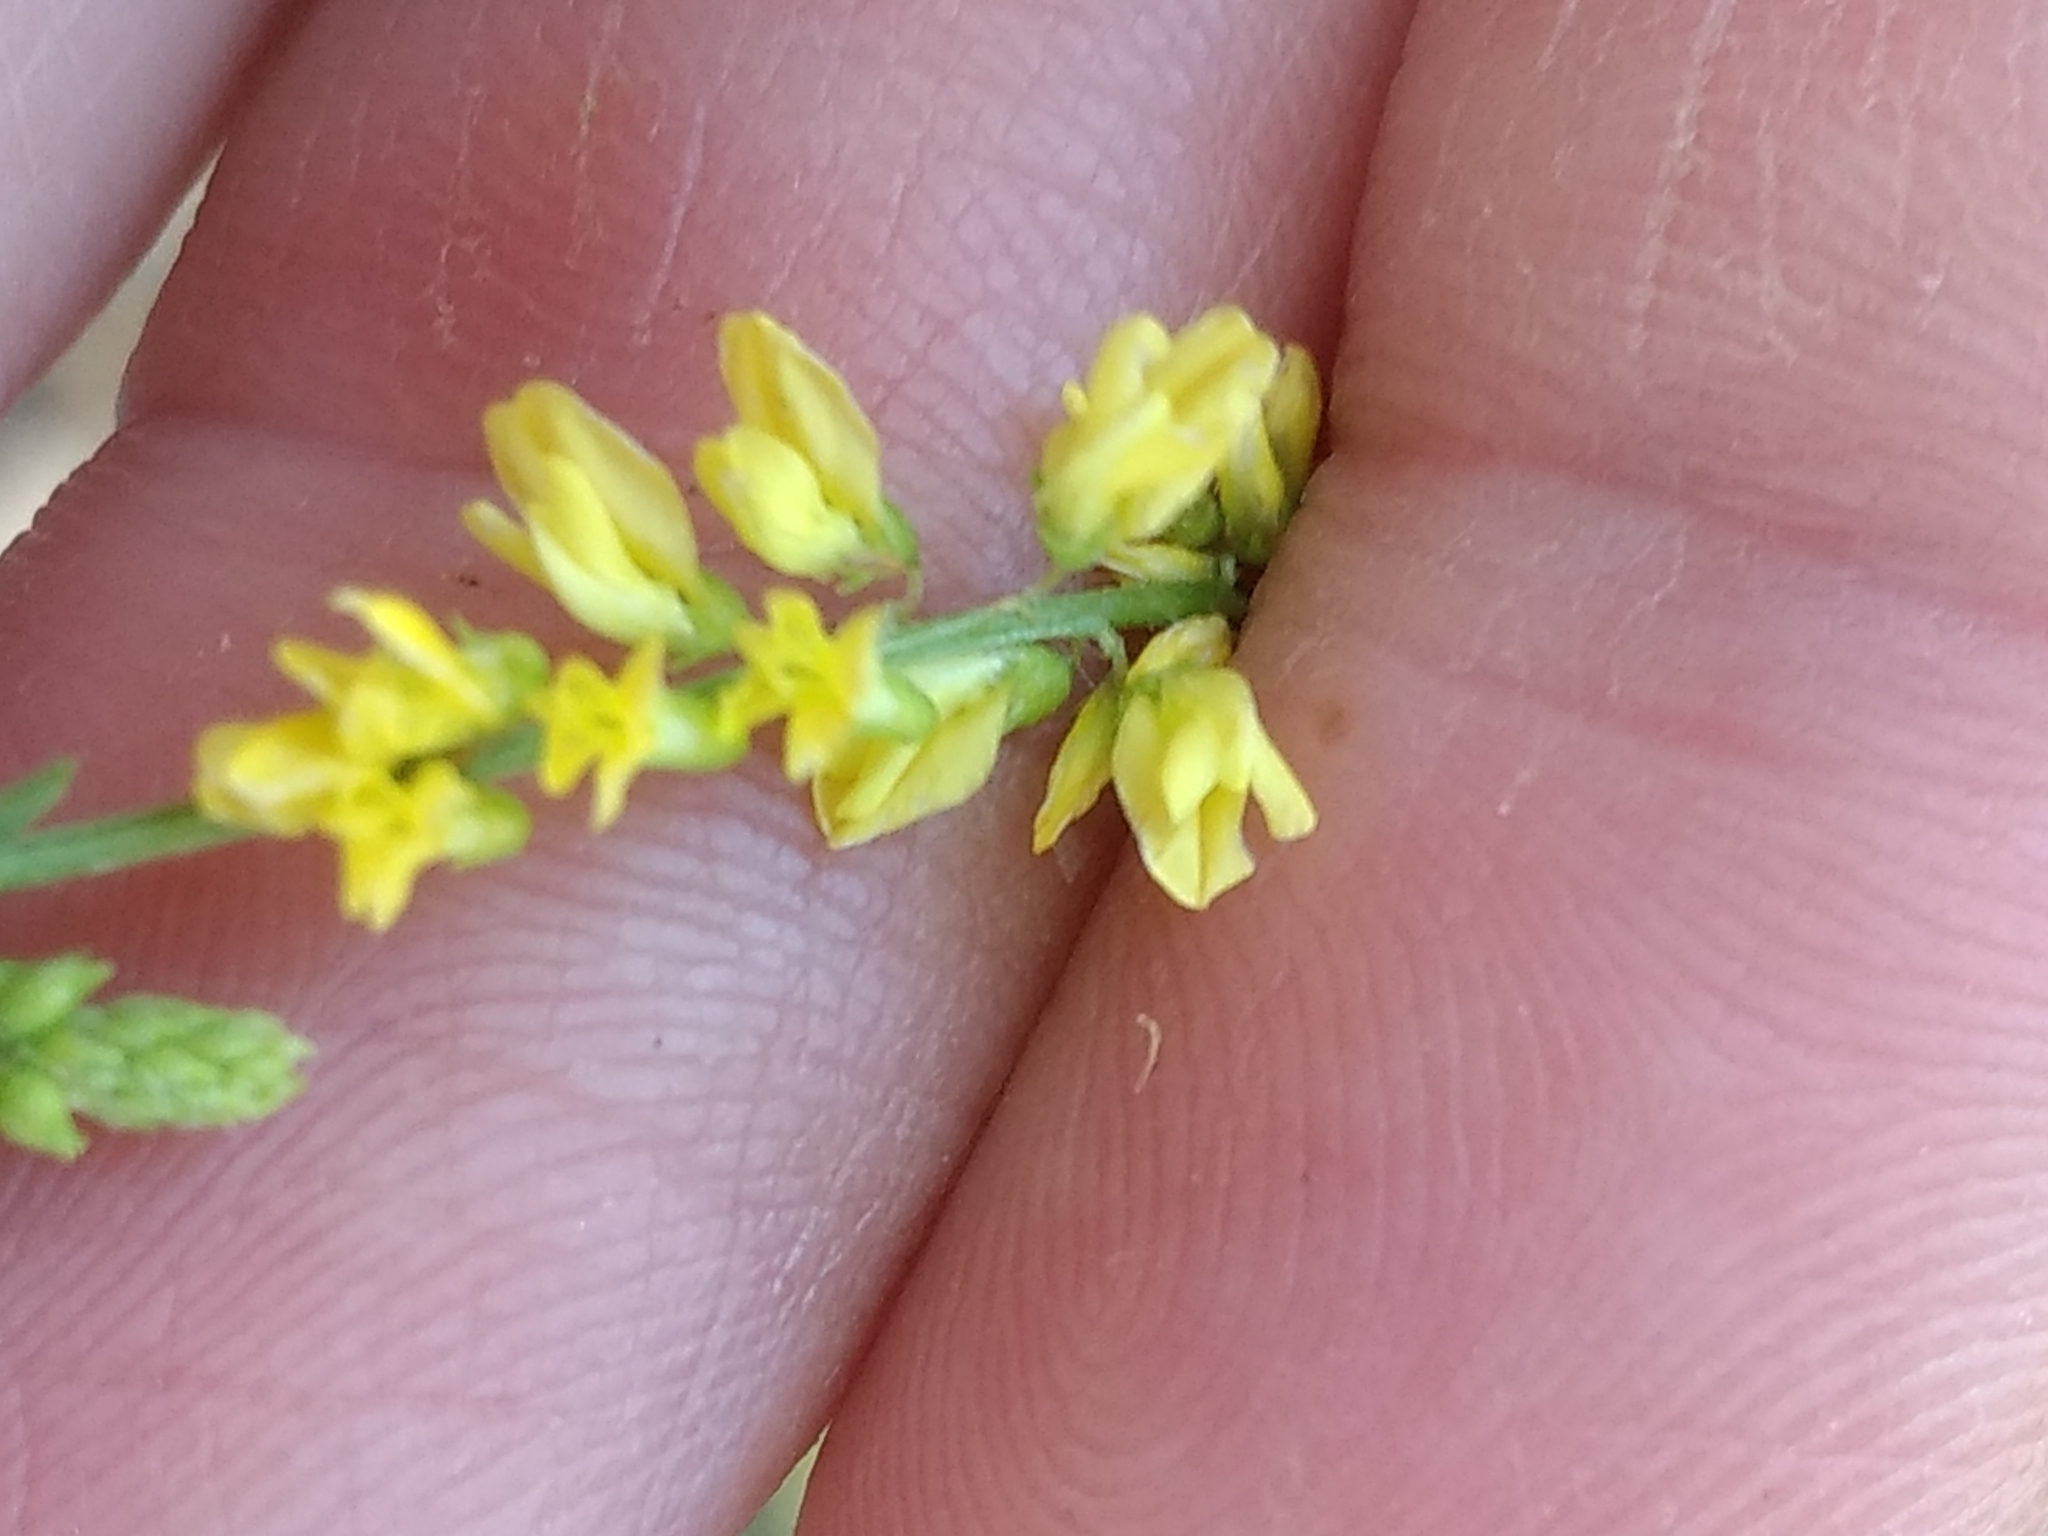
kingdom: Plantae
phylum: Tracheophyta
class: Magnoliopsida
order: Fabales
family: Fabaceae
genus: Melilotus
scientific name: Melilotus officinalis
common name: Sweetclover
